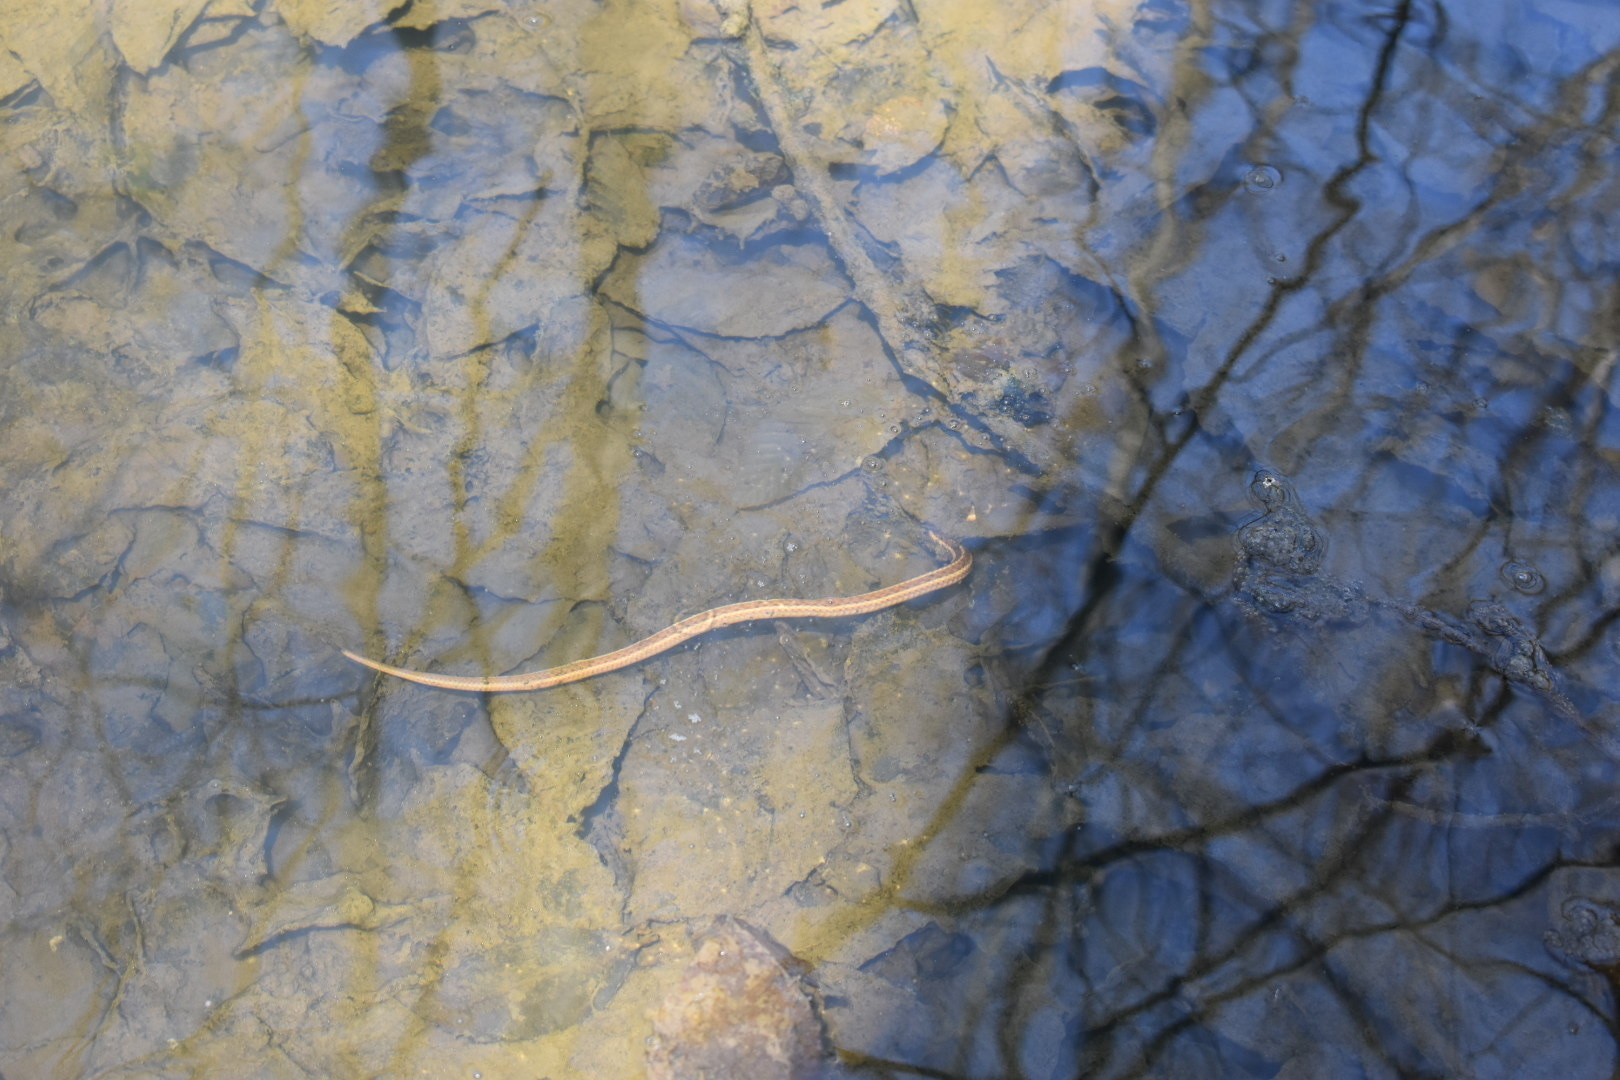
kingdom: Animalia
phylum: Chordata
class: Squamata
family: Colubridae
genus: Thamnophis
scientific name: Thamnophis sirtalis
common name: Common garter snake
